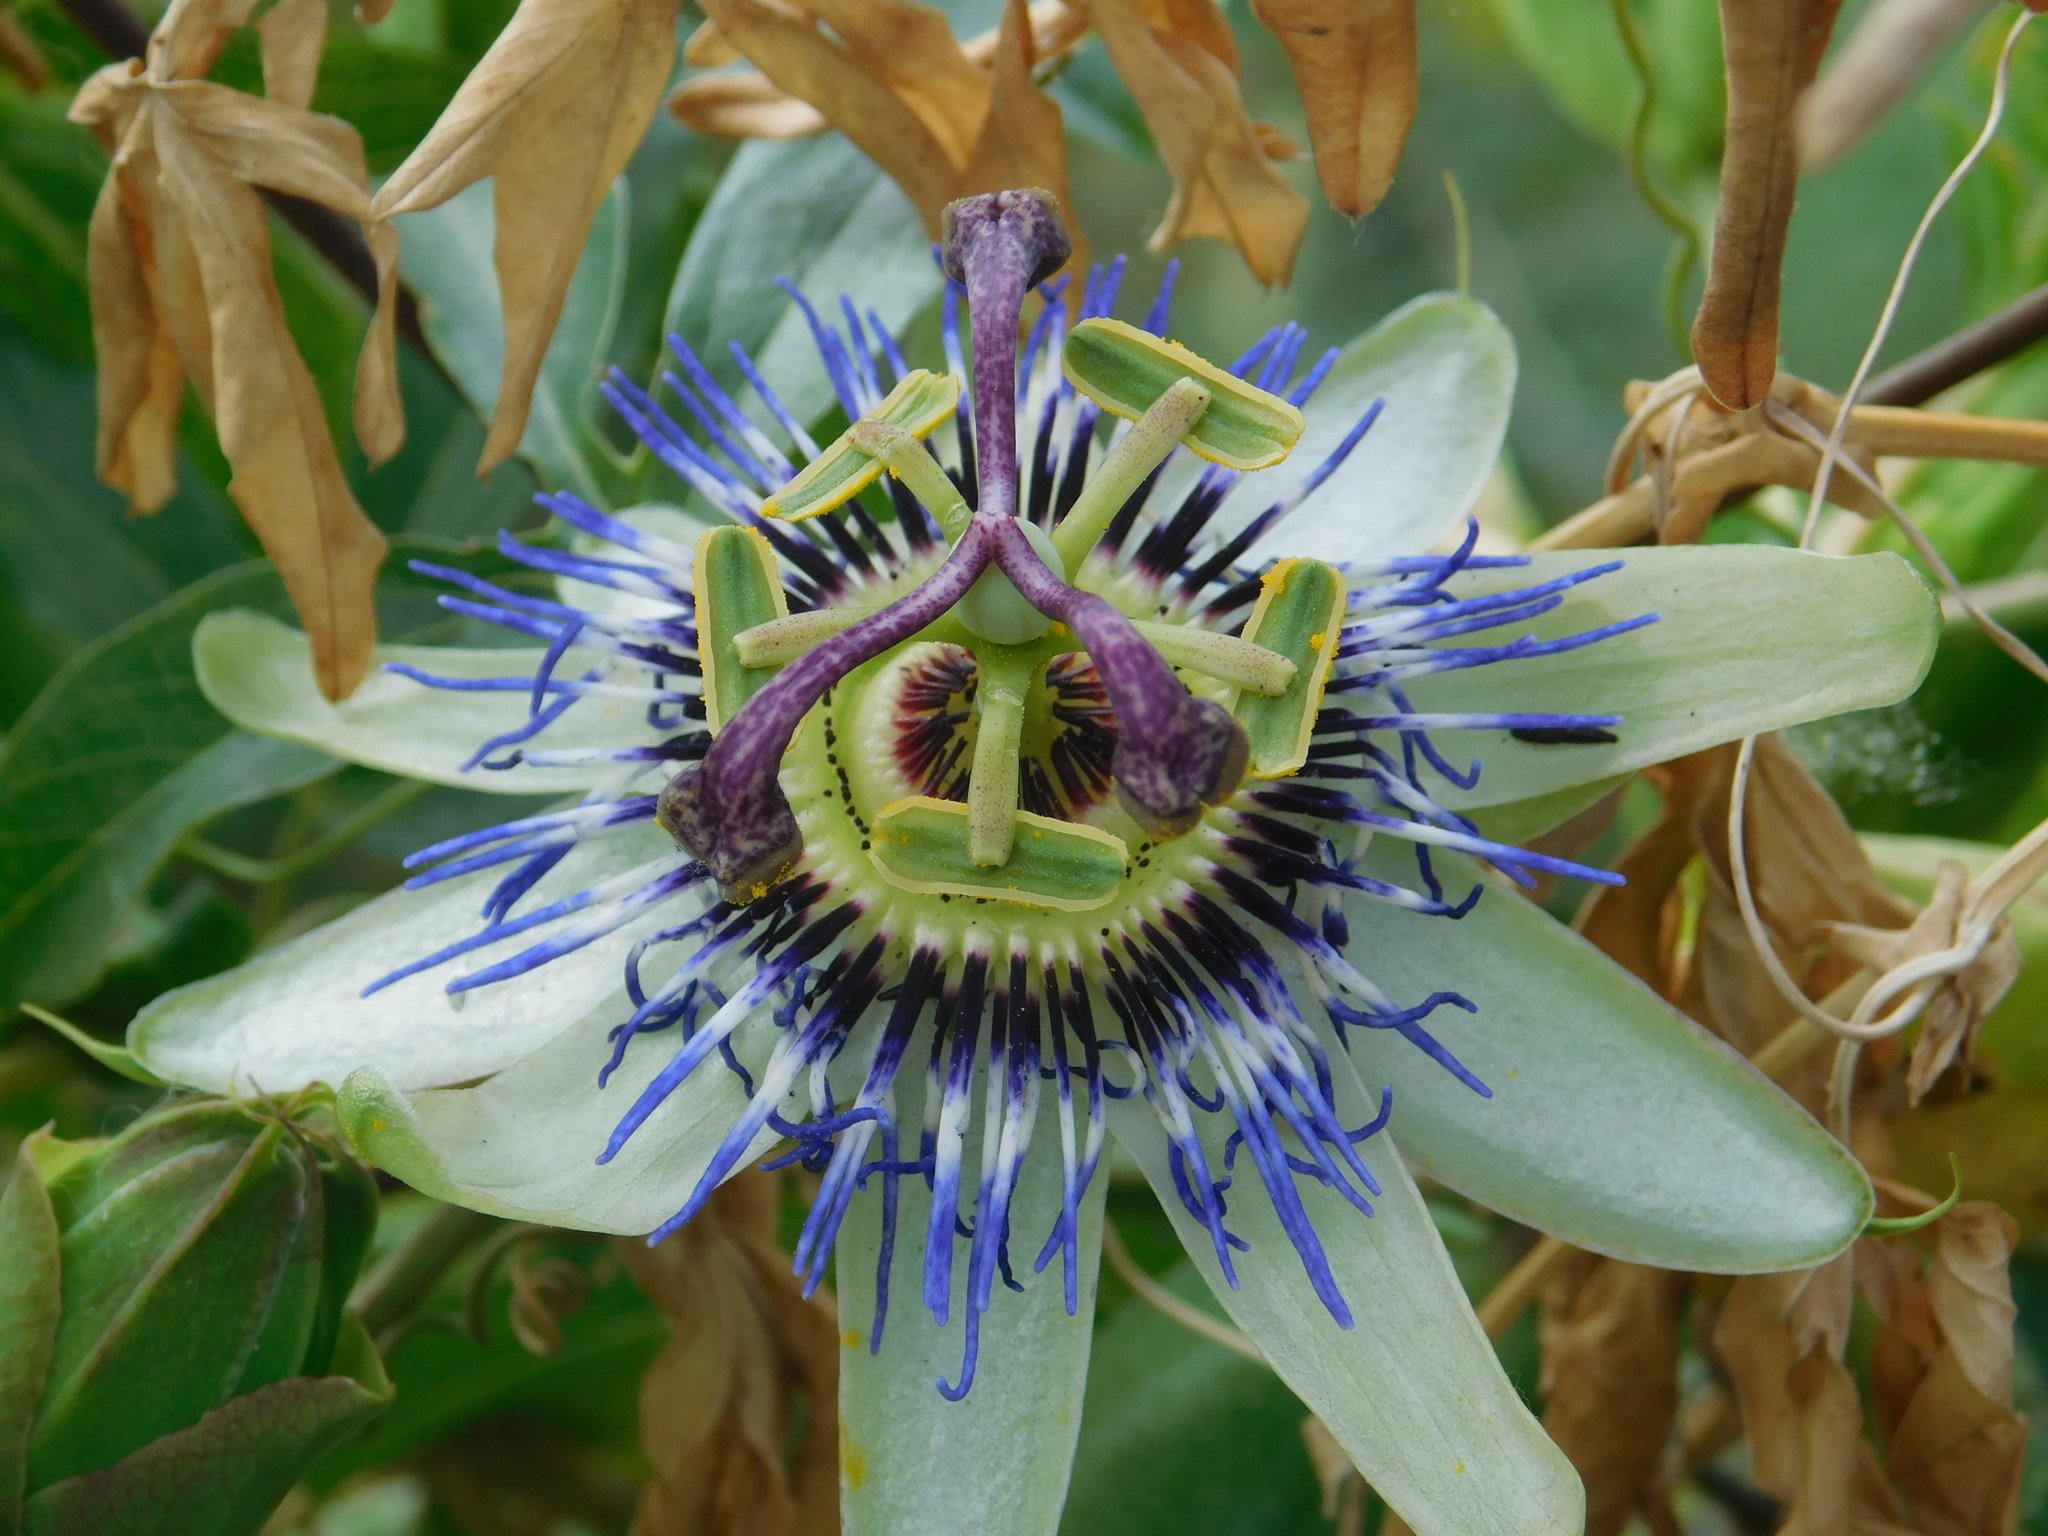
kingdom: Plantae
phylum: Tracheophyta
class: Magnoliopsida
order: Malpighiales
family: Passifloraceae
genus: Passiflora
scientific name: Passiflora caerulea
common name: Blue passionflower
